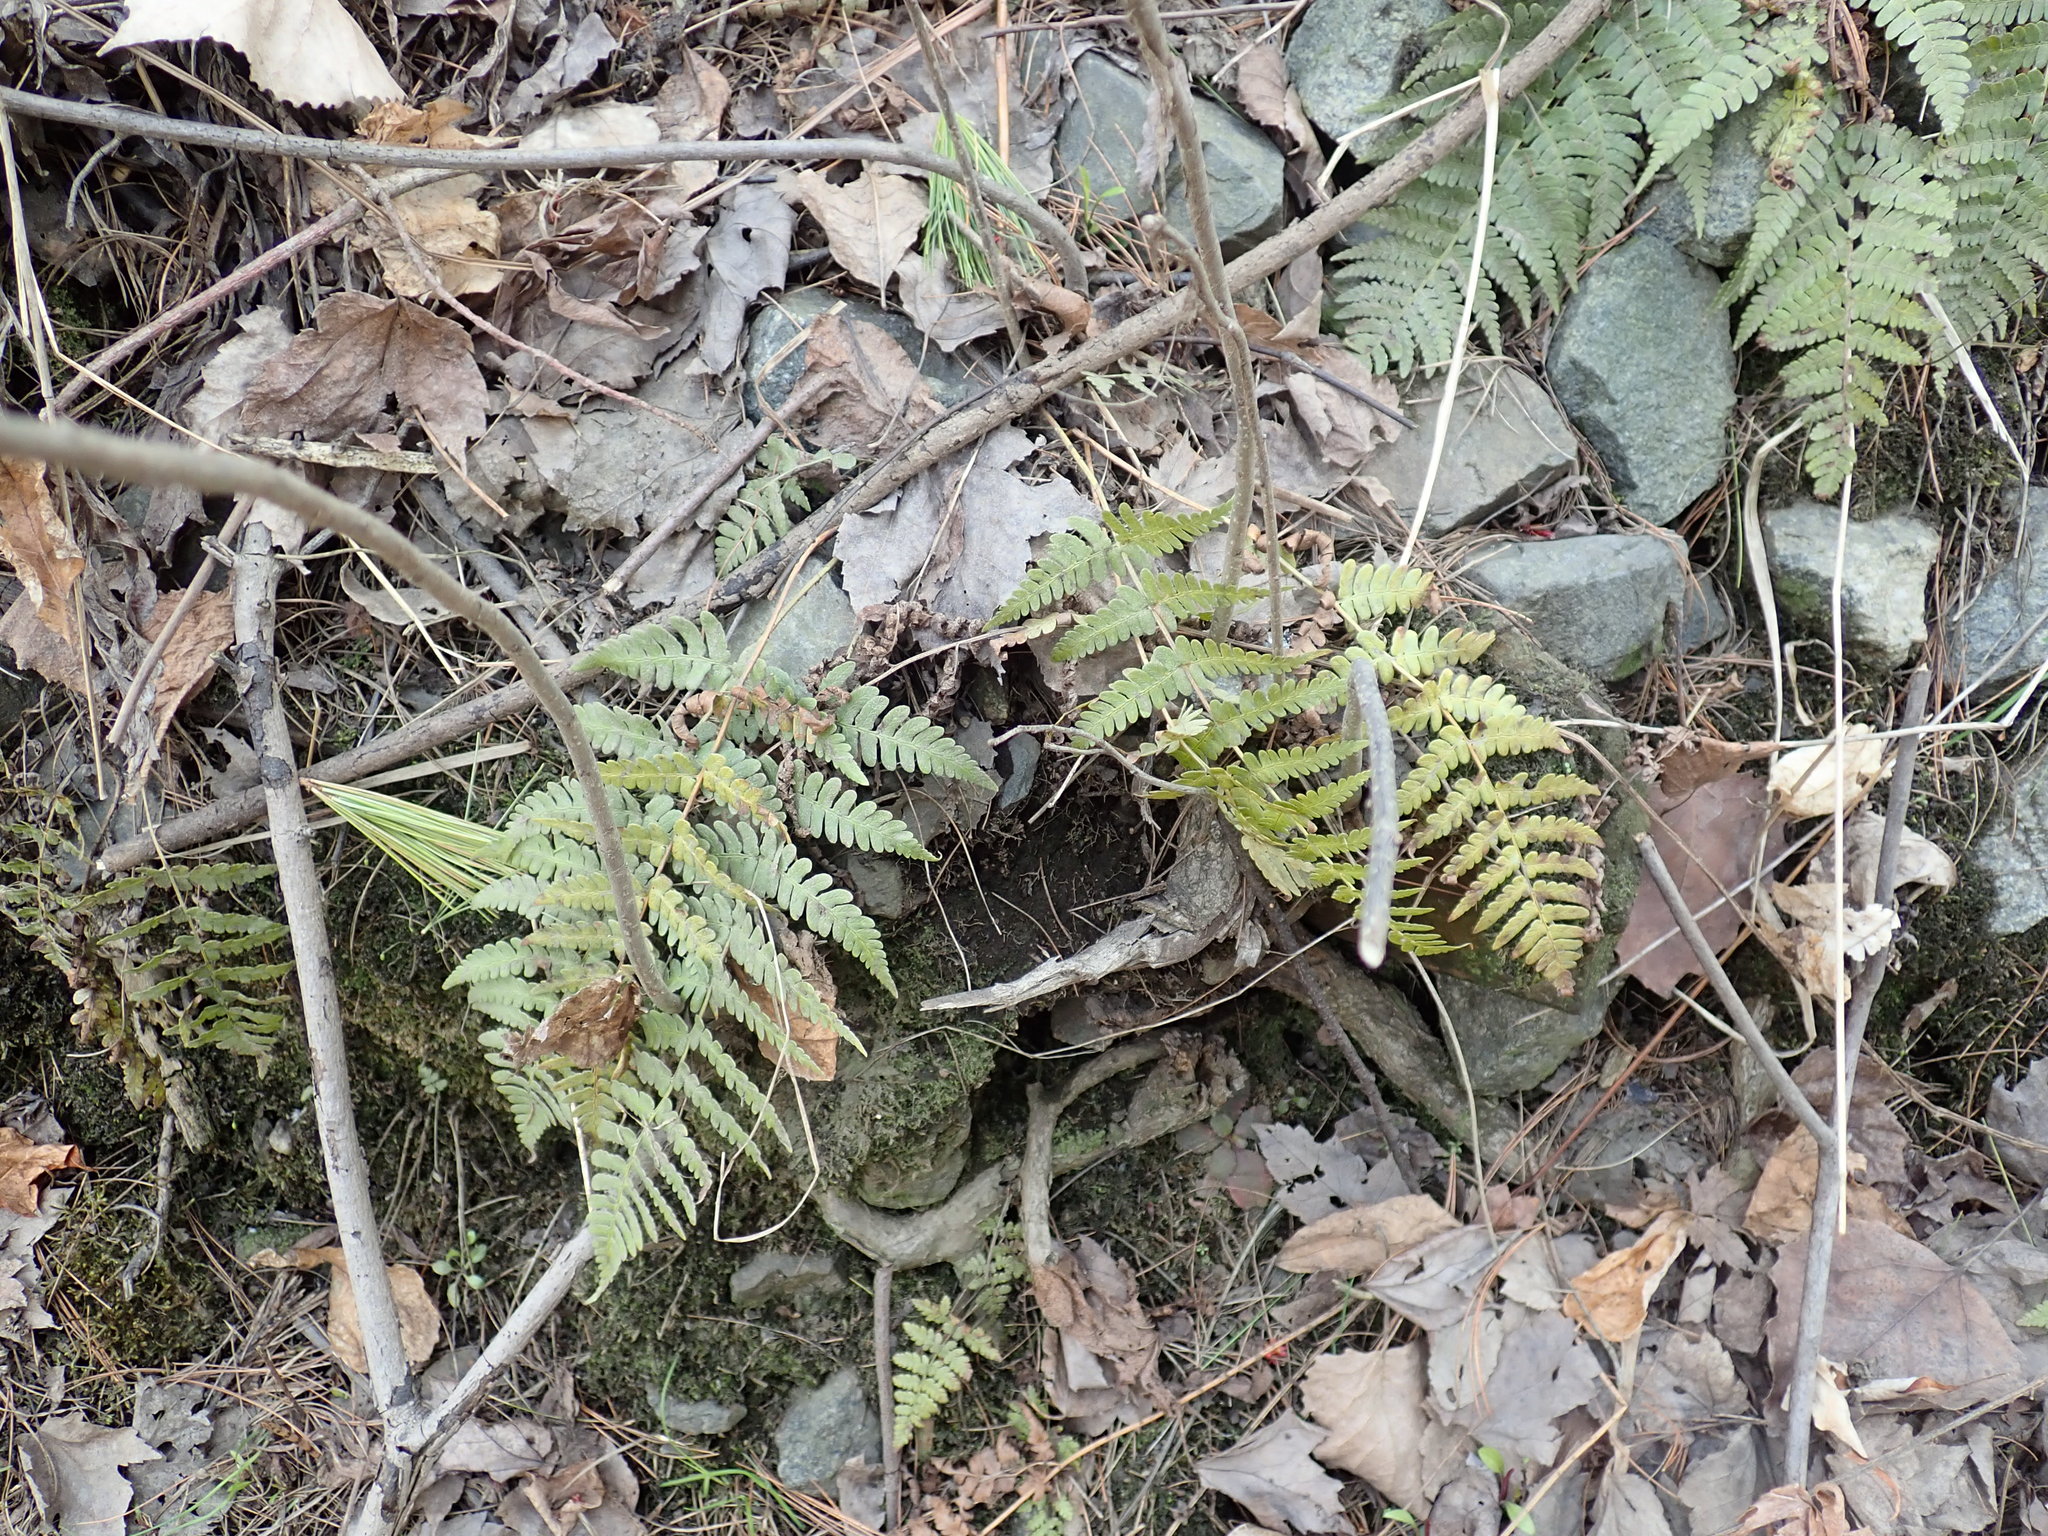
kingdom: Plantae
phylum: Tracheophyta
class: Polypodiopsida
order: Polypodiales
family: Dryopteridaceae
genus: Dryopteris
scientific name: Dryopteris marginalis
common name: Marginal wood fern
